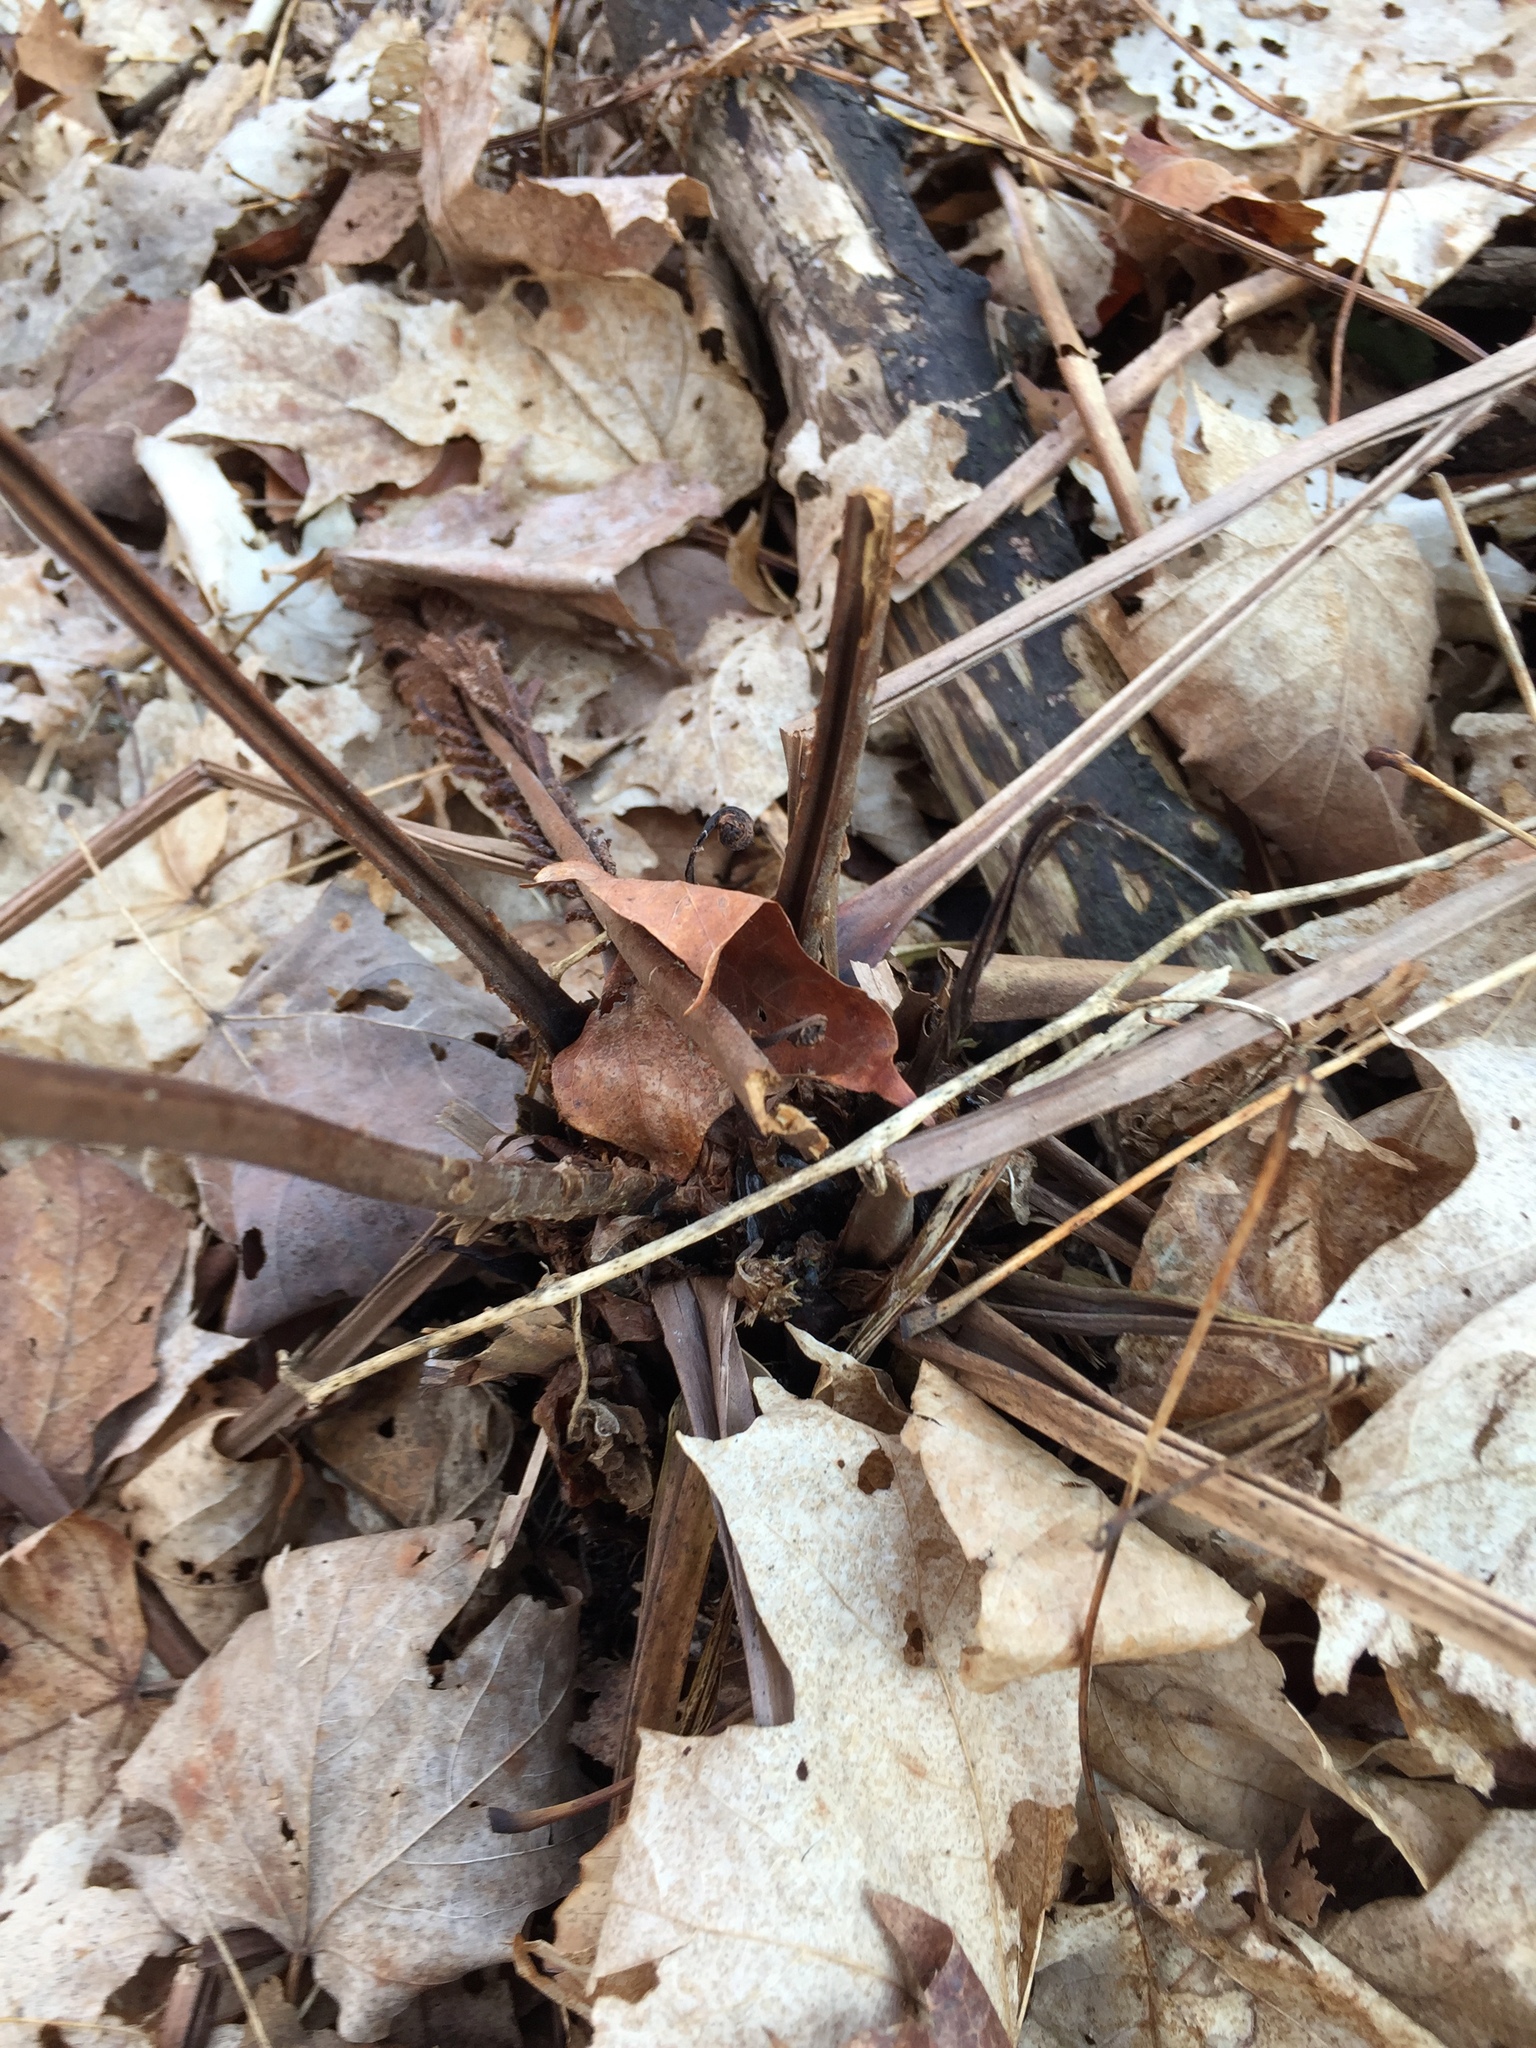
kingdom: Plantae
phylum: Tracheophyta
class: Polypodiopsida
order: Polypodiales
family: Onocleaceae
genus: Matteuccia
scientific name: Matteuccia struthiopteris
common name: Ostrich fern
